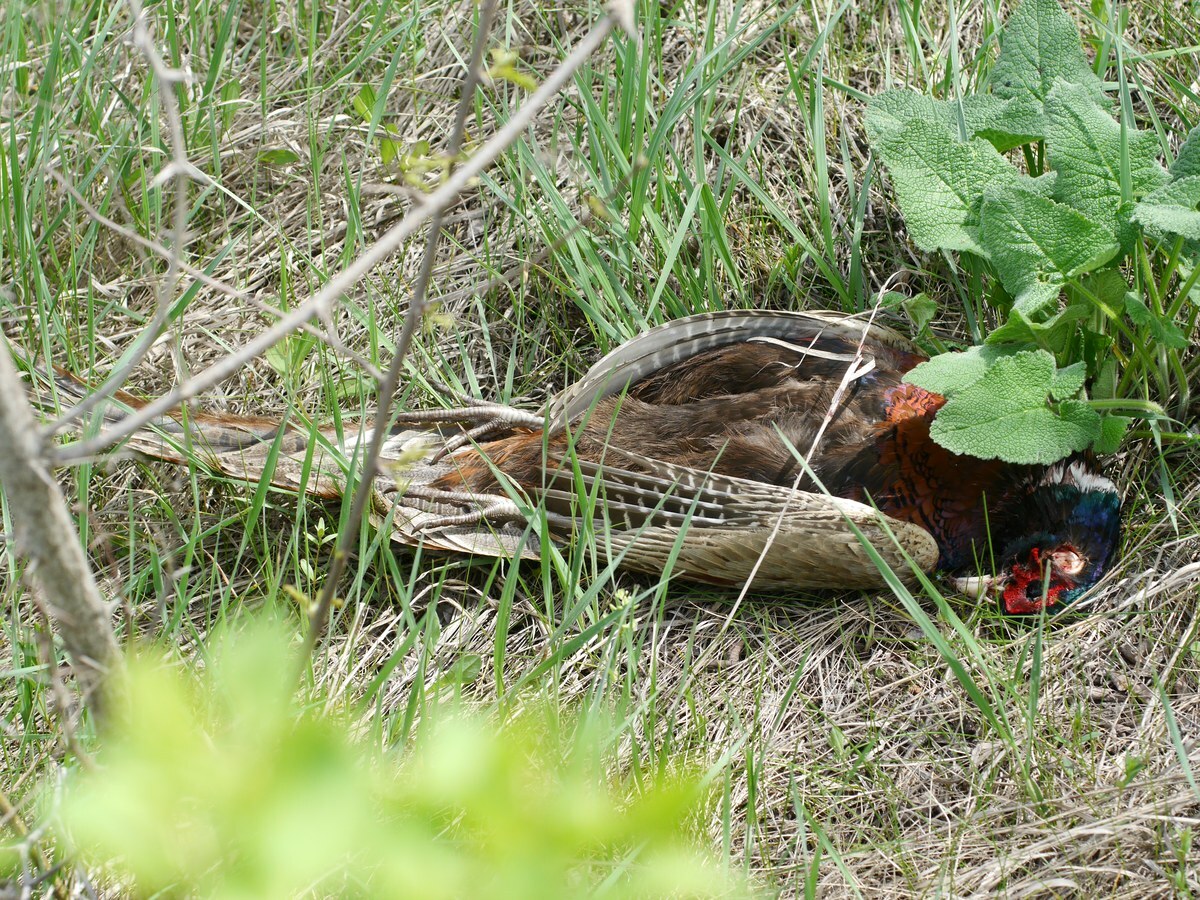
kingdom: Animalia
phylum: Chordata
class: Aves
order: Galliformes
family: Phasianidae
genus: Phasianus
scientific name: Phasianus colchicus
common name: Common pheasant
